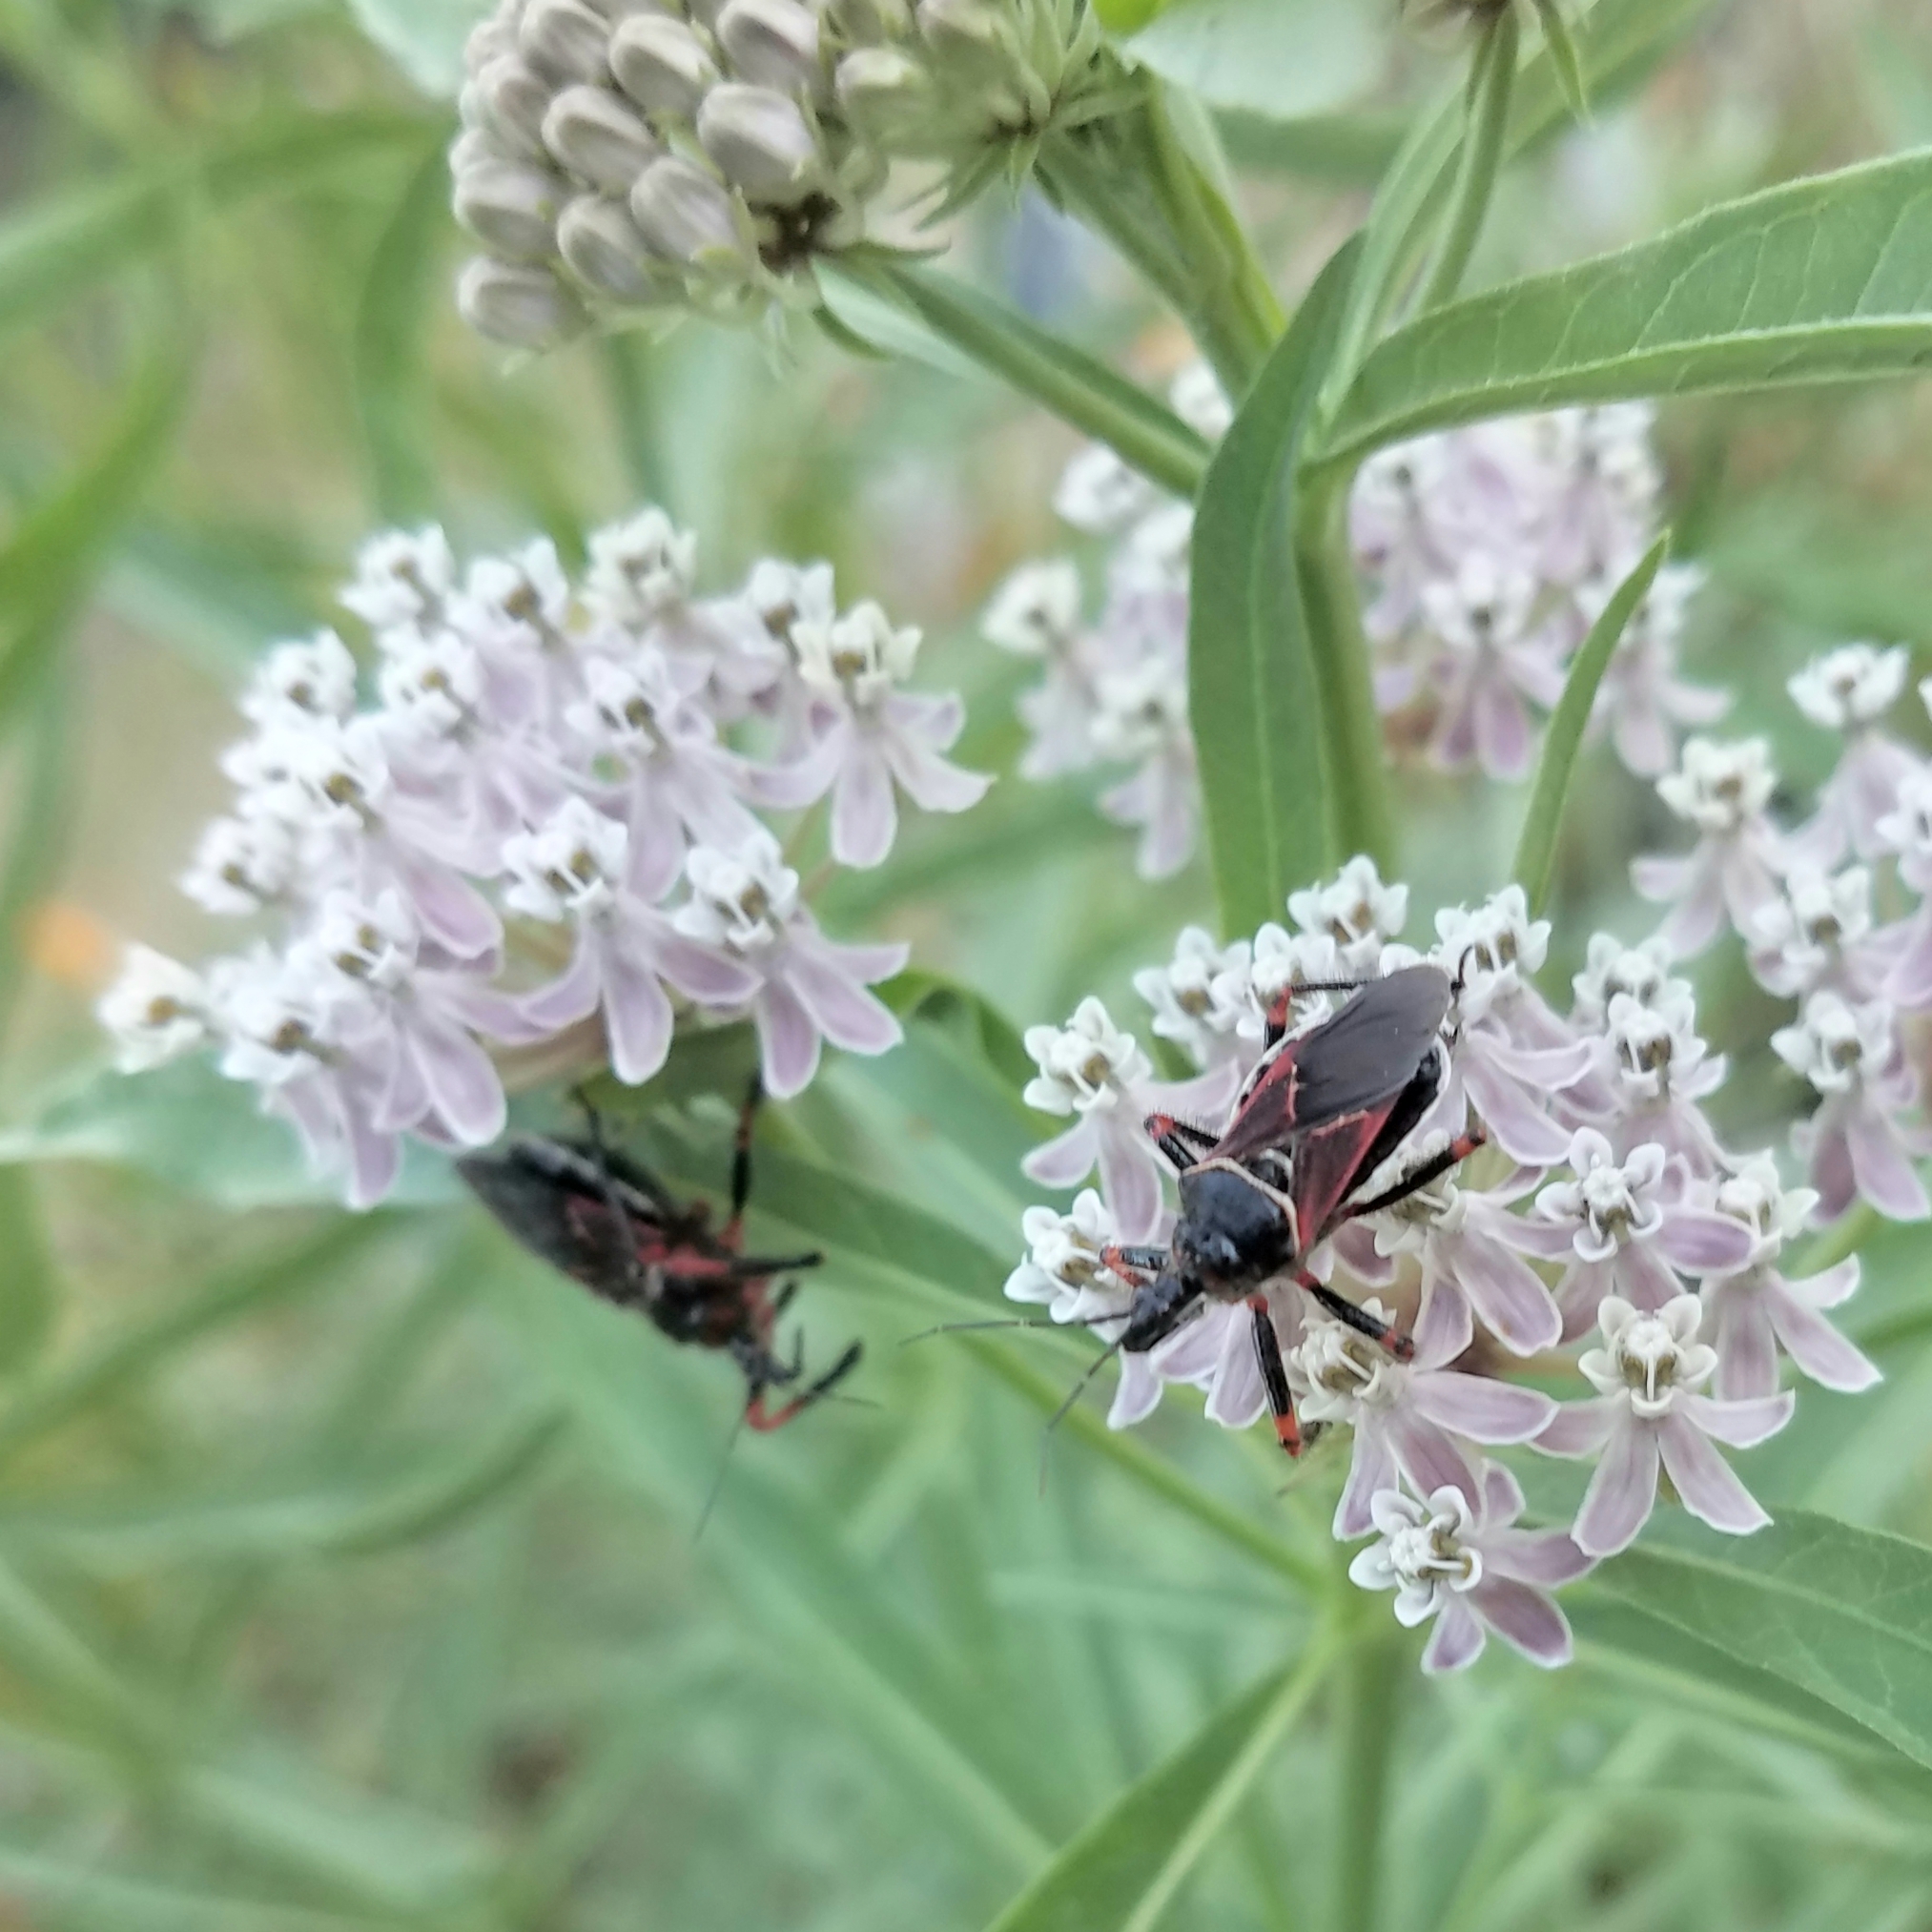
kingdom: Animalia
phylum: Arthropoda
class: Insecta
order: Hemiptera
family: Reduviidae
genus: Apiomerus
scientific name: Apiomerus californicus
